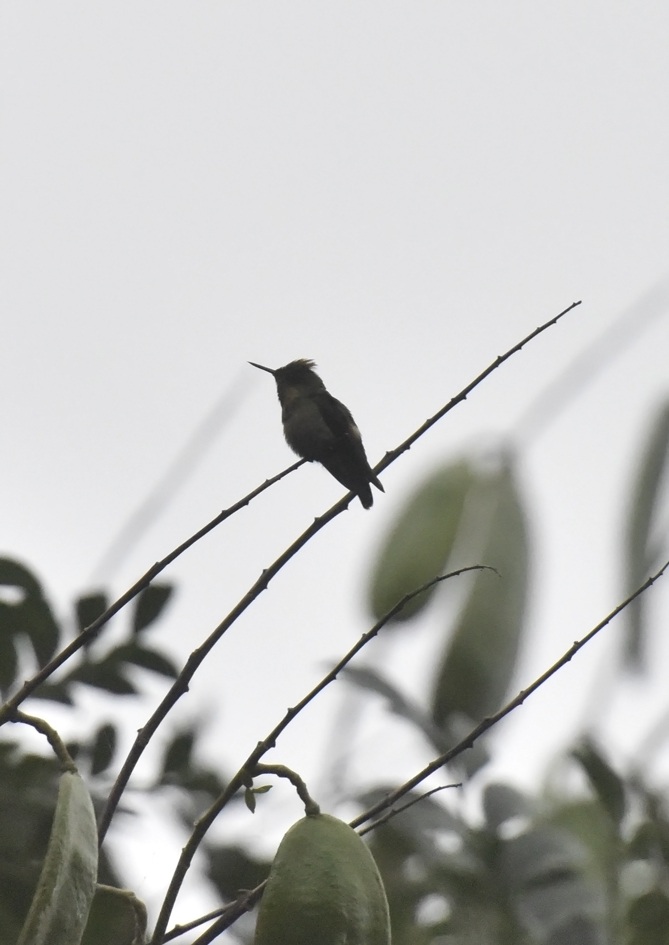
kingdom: Animalia
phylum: Chordata
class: Aves
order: Apodiformes
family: Trochilidae
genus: Lophornis
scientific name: Lophornis ornatus
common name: Tufted coquette
